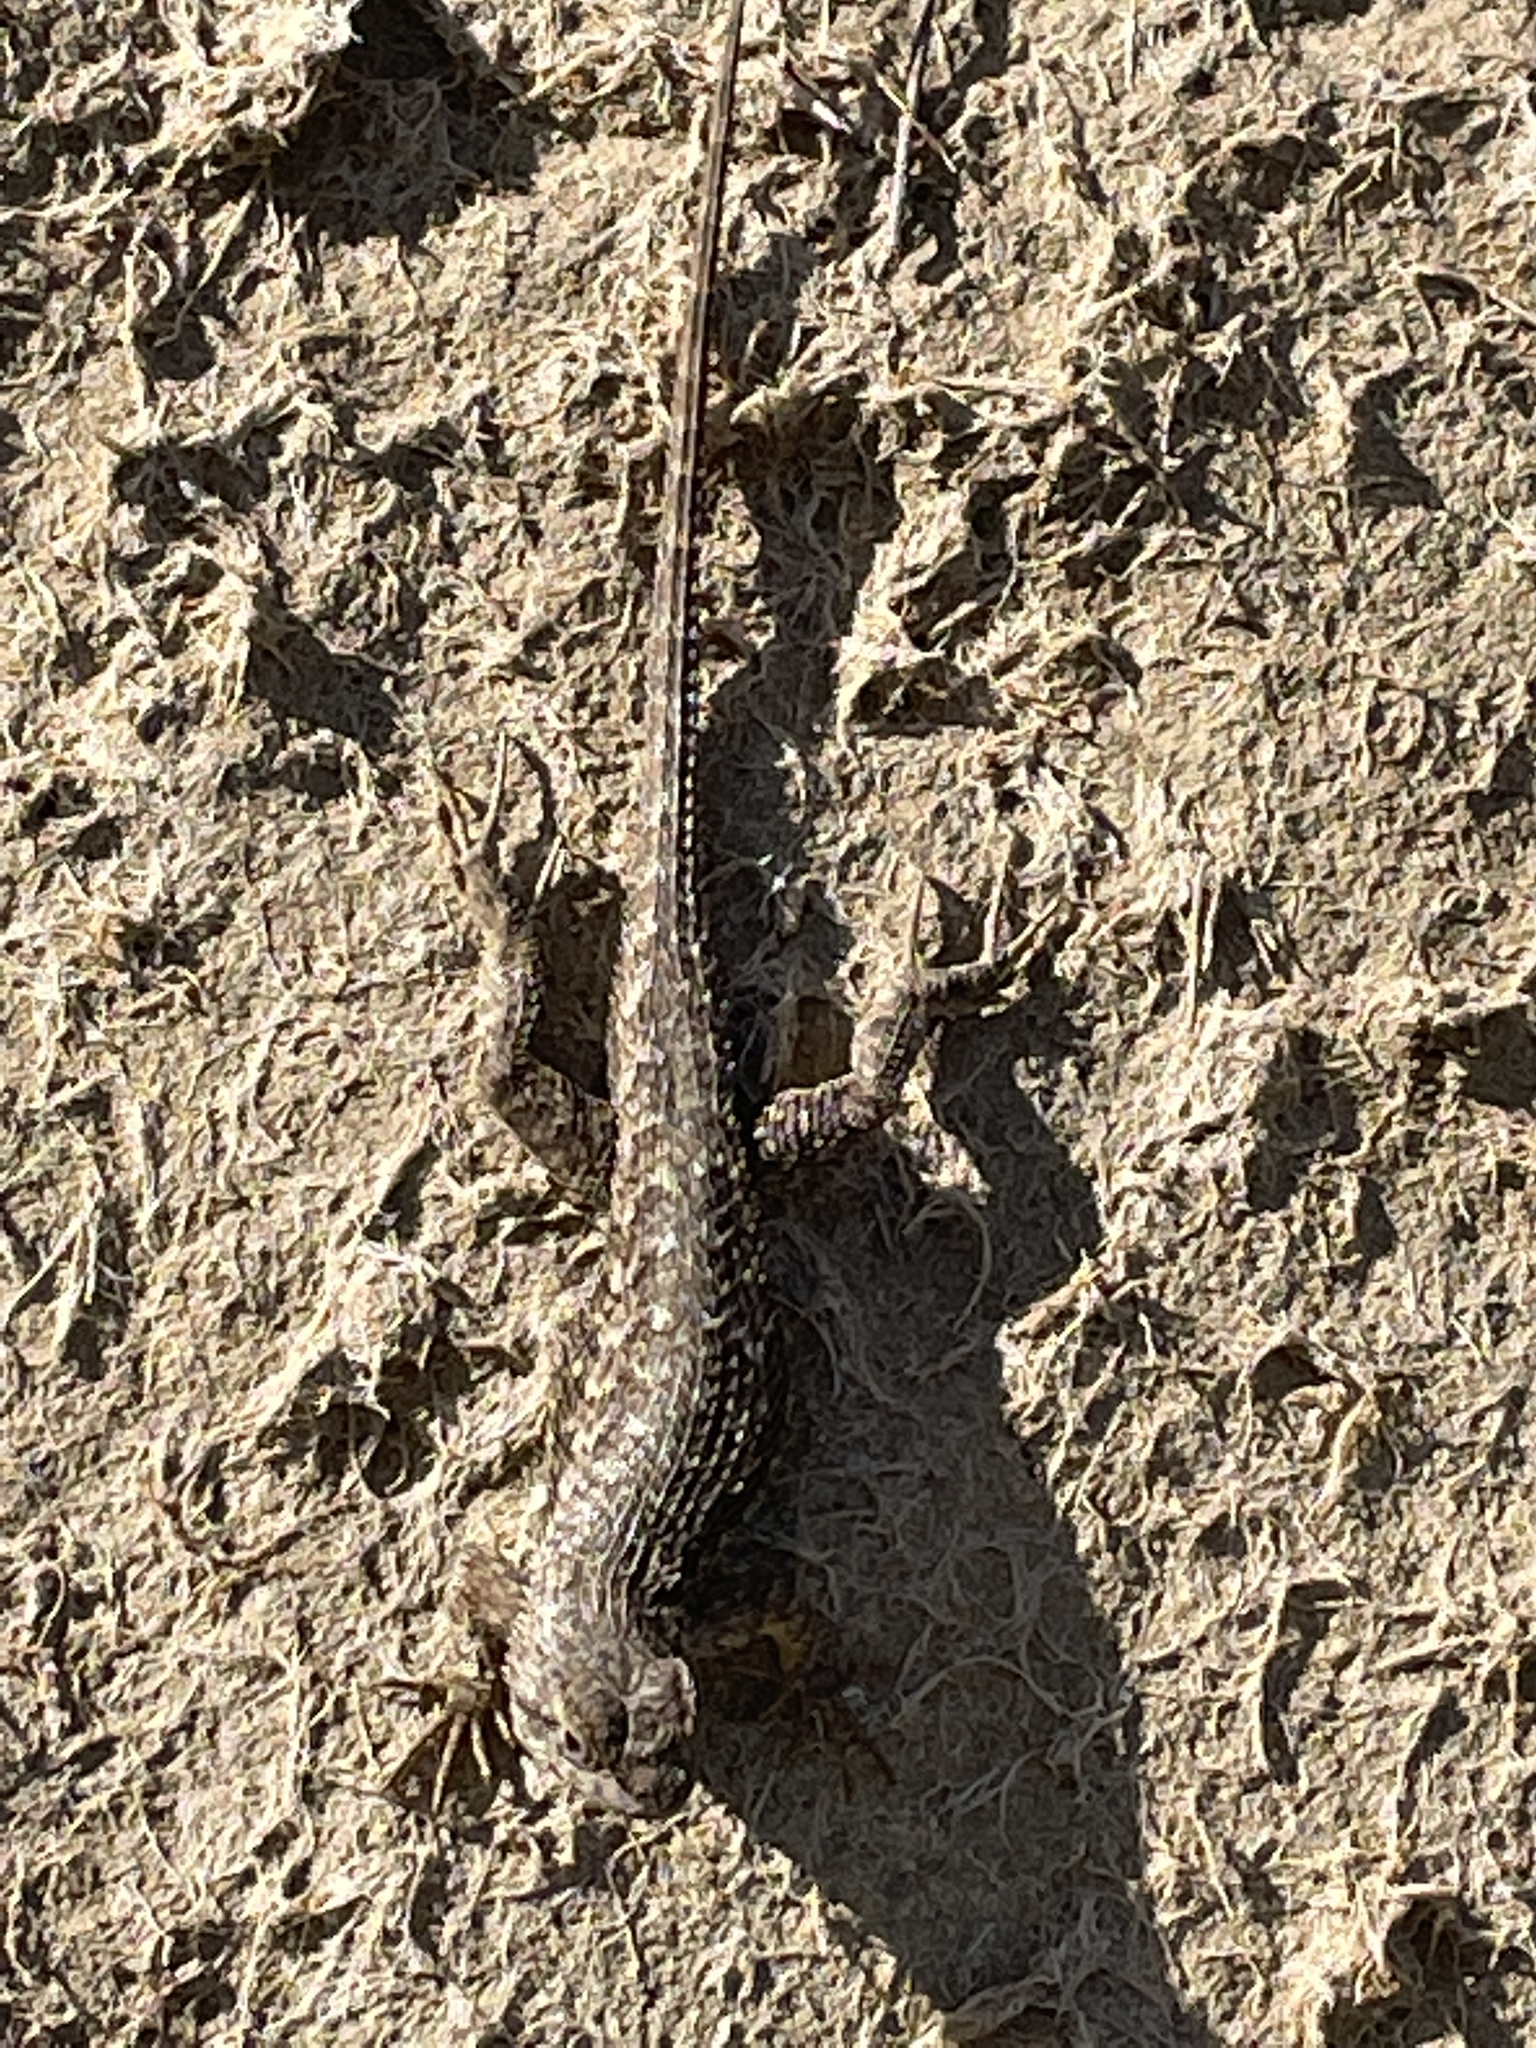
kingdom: Animalia
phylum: Chordata
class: Squamata
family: Phrynosomatidae
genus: Sceloporus
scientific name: Sceloporus occidentalis
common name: Western fence lizard
